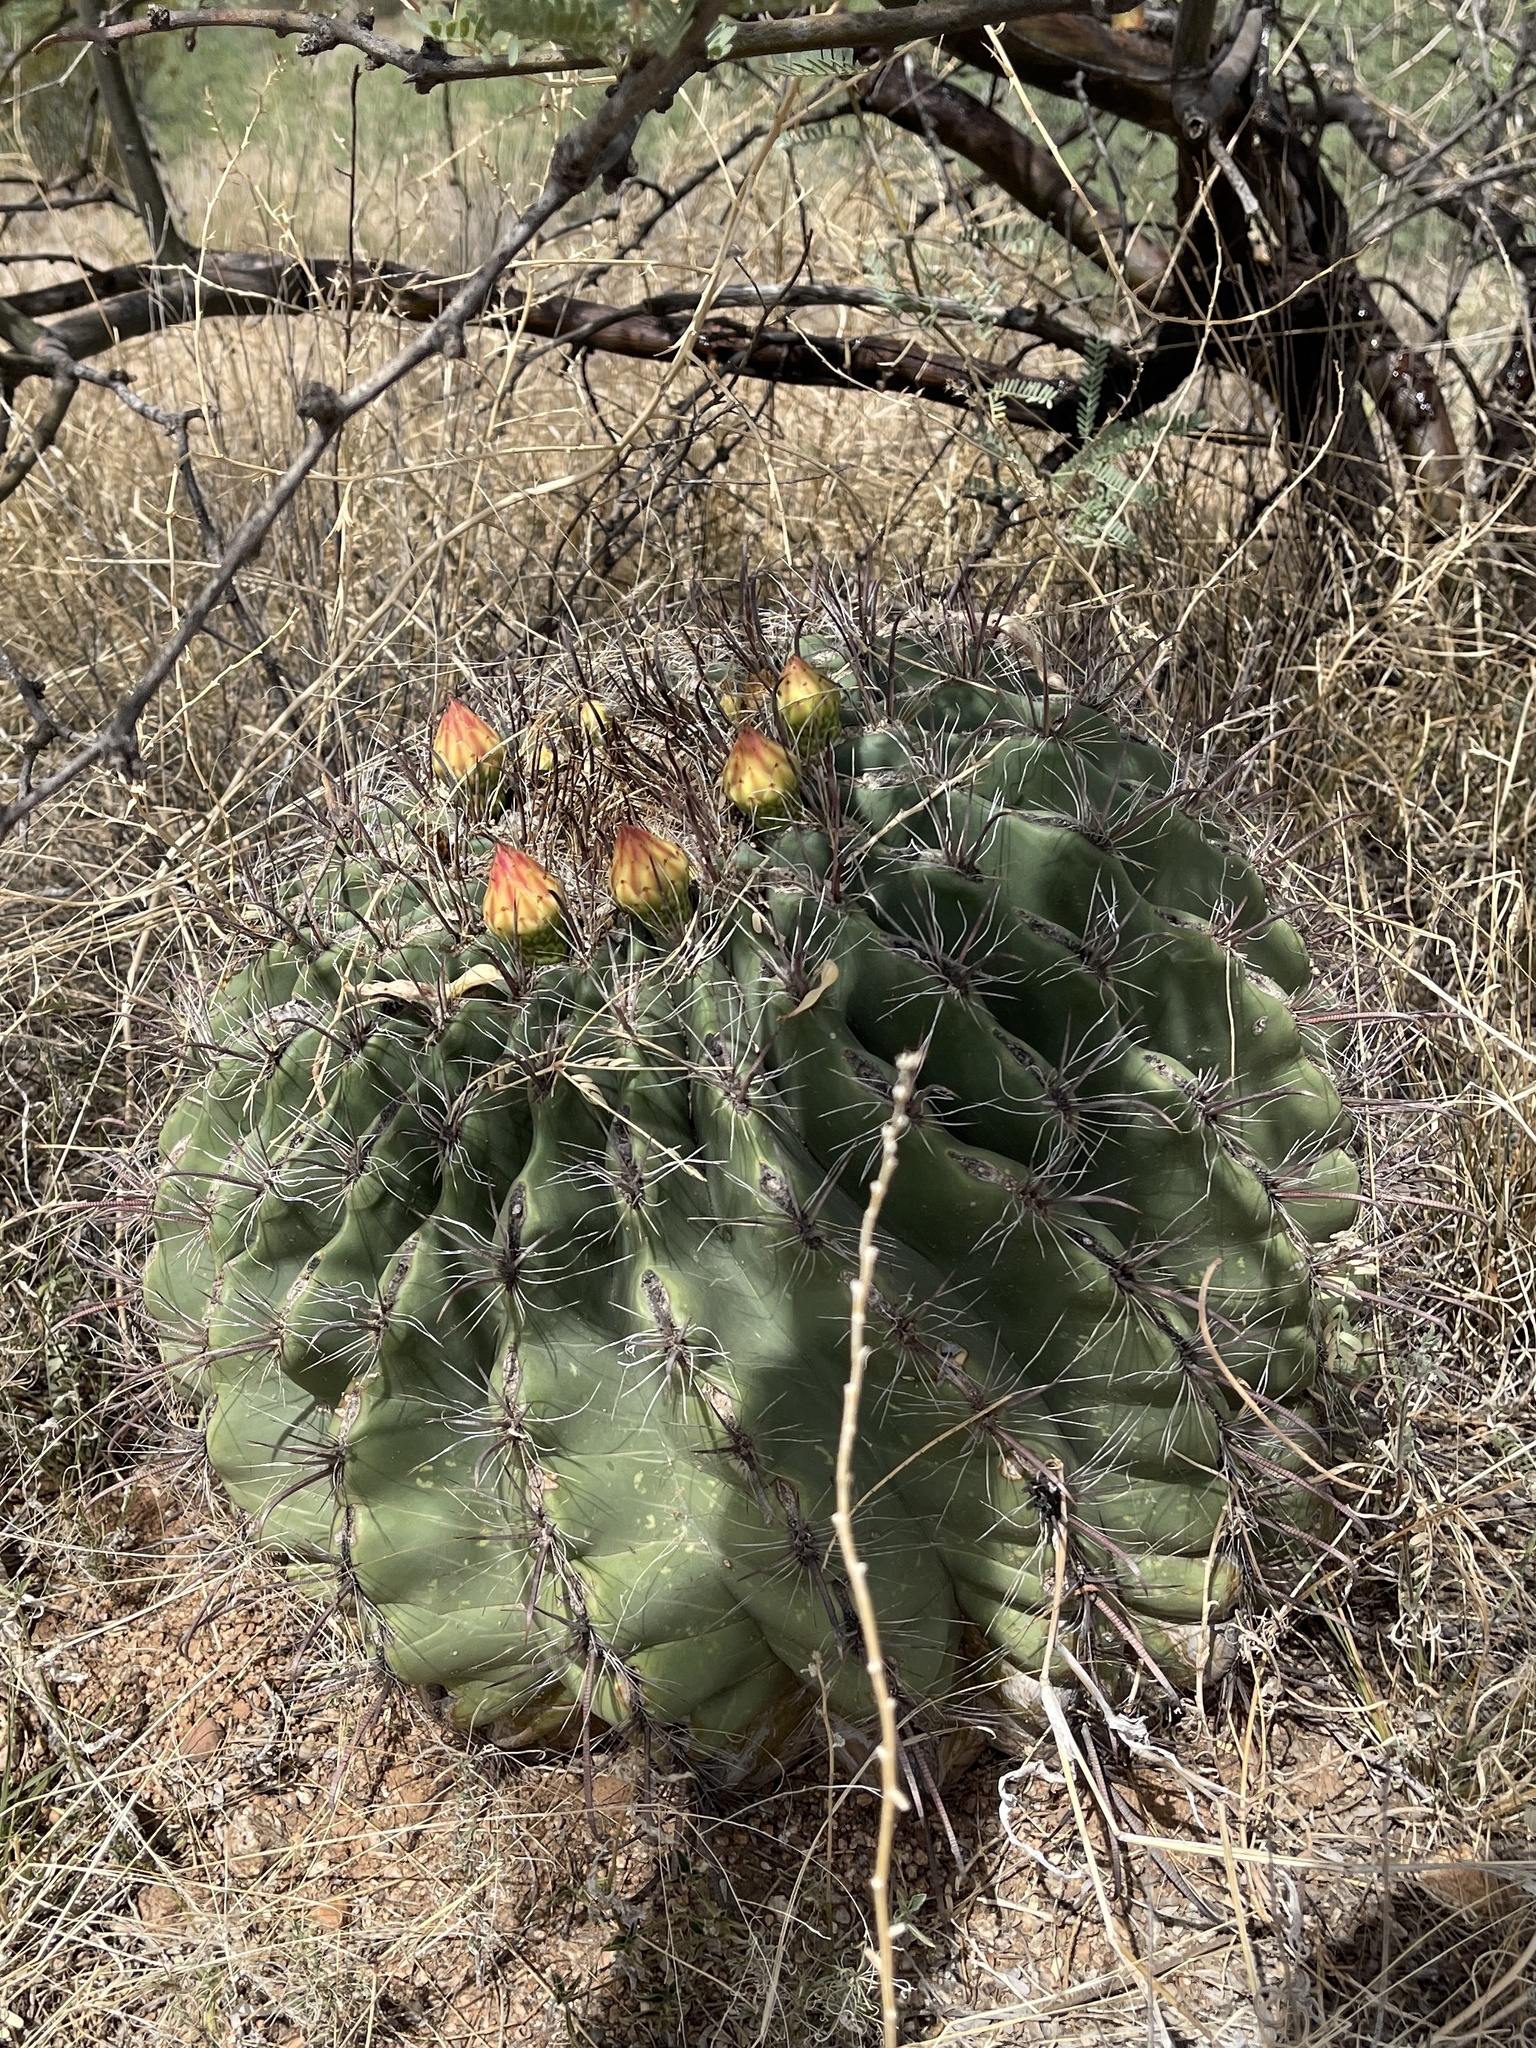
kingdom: Plantae
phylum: Tracheophyta
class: Magnoliopsida
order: Caryophyllales
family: Cactaceae
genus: Ferocactus
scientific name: Ferocactus wislizeni
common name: Candy barrel cactus
